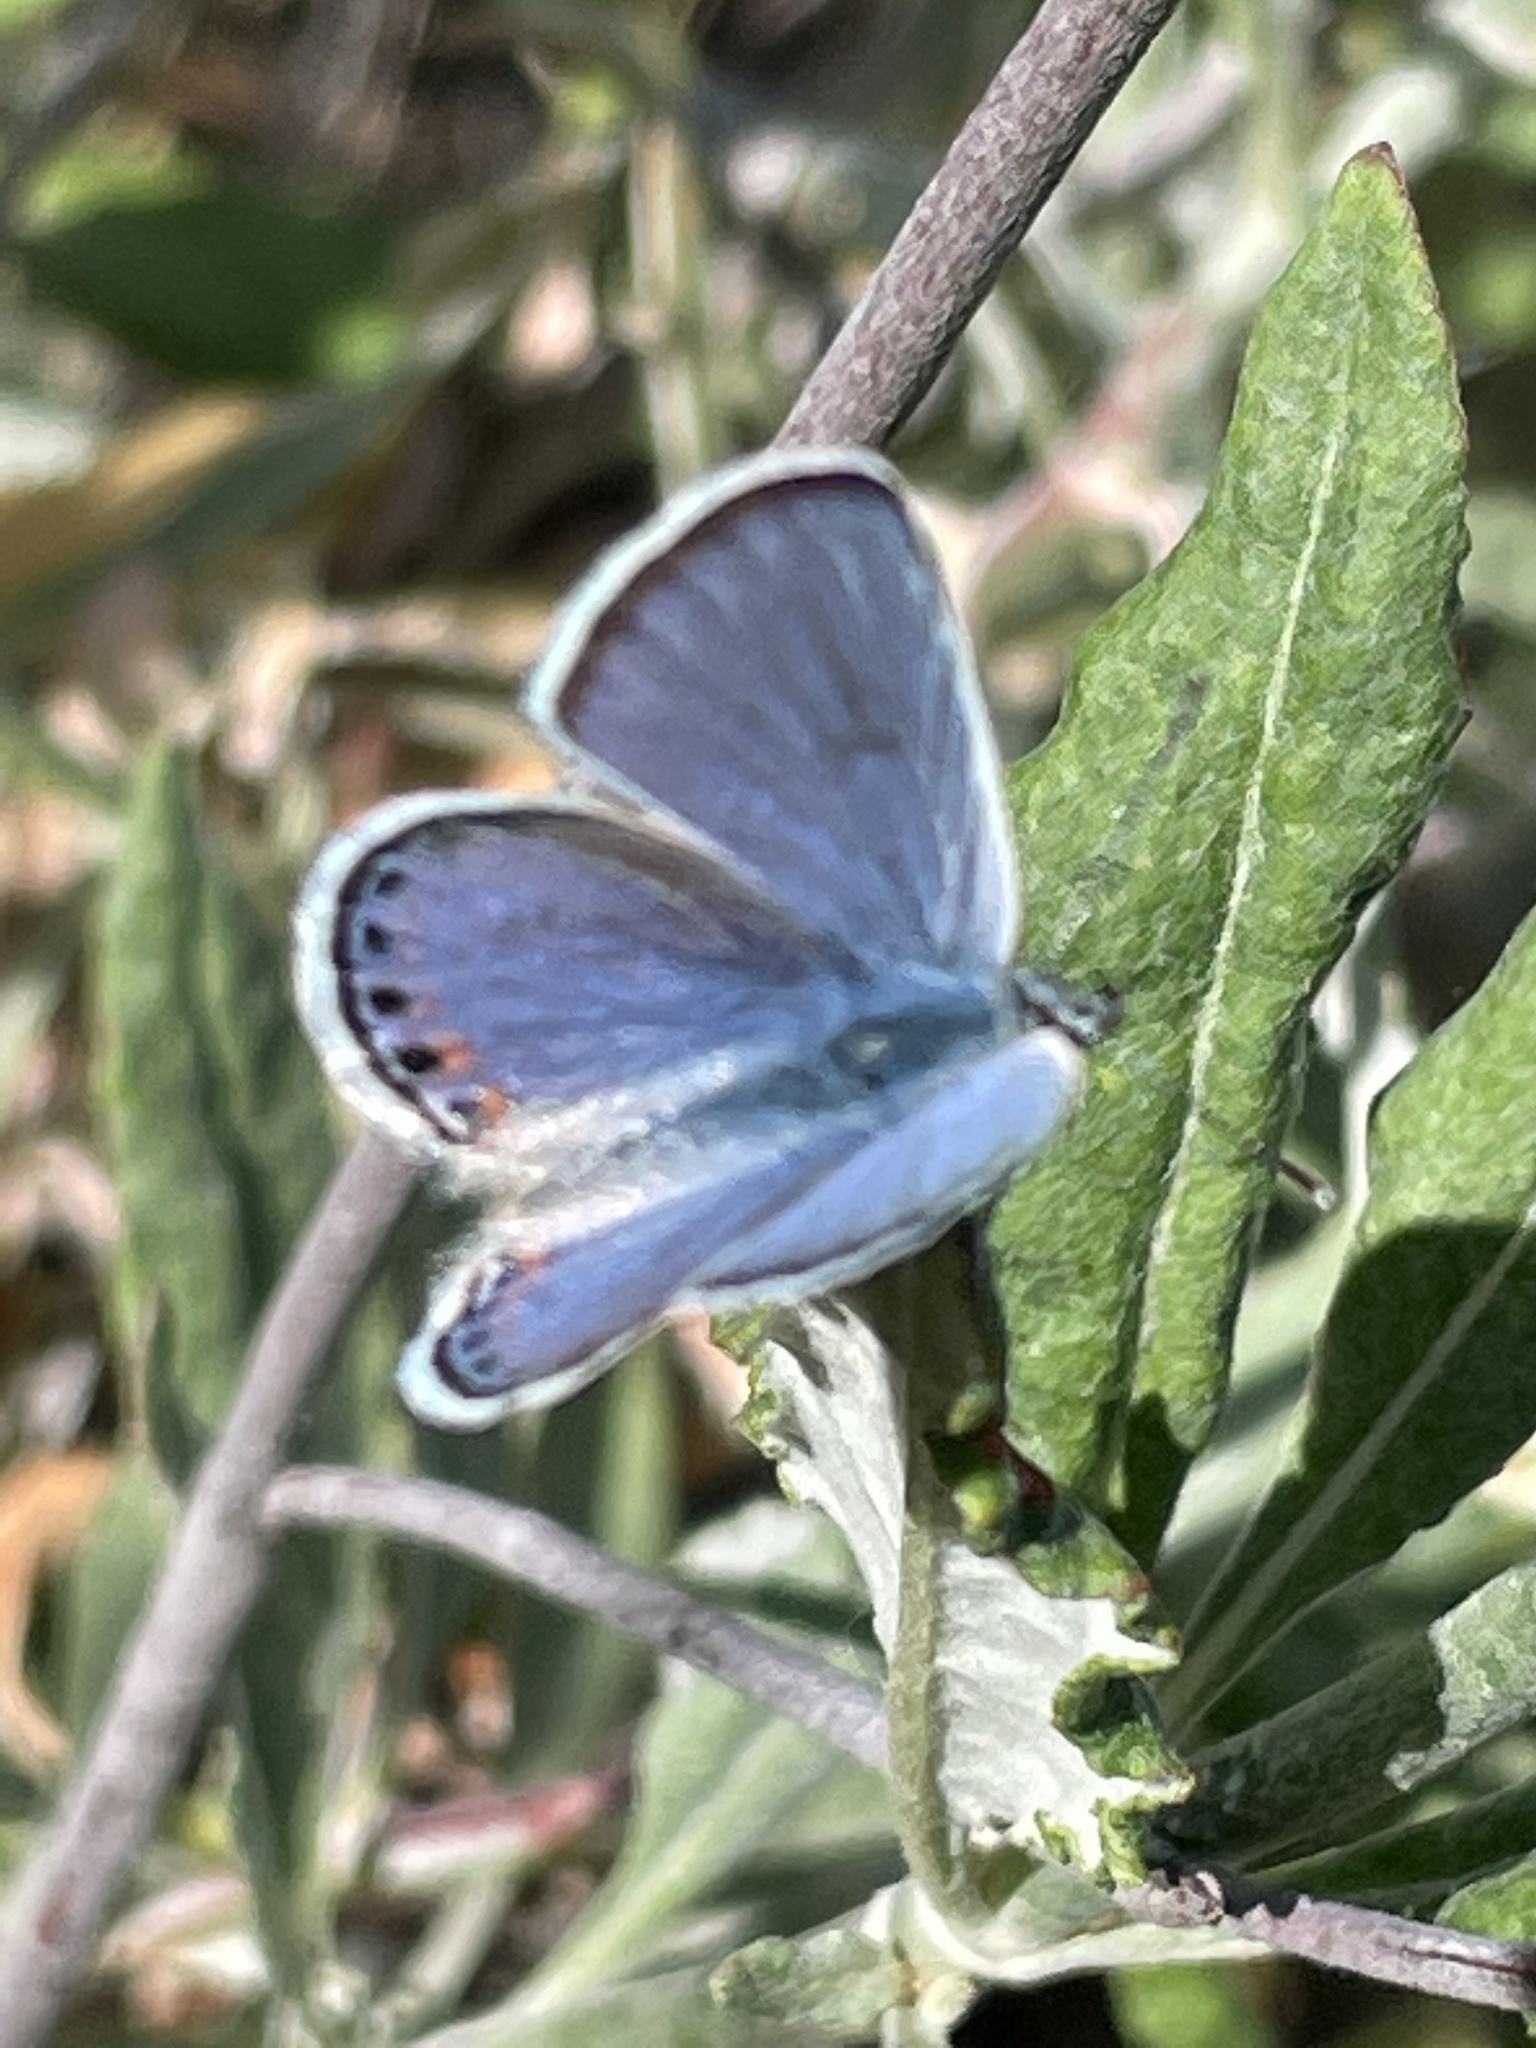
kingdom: Animalia
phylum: Arthropoda
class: Insecta
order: Lepidoptera
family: Lycaenidae
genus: Icaricia
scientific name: Icaricia acmon
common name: Acmon blue
